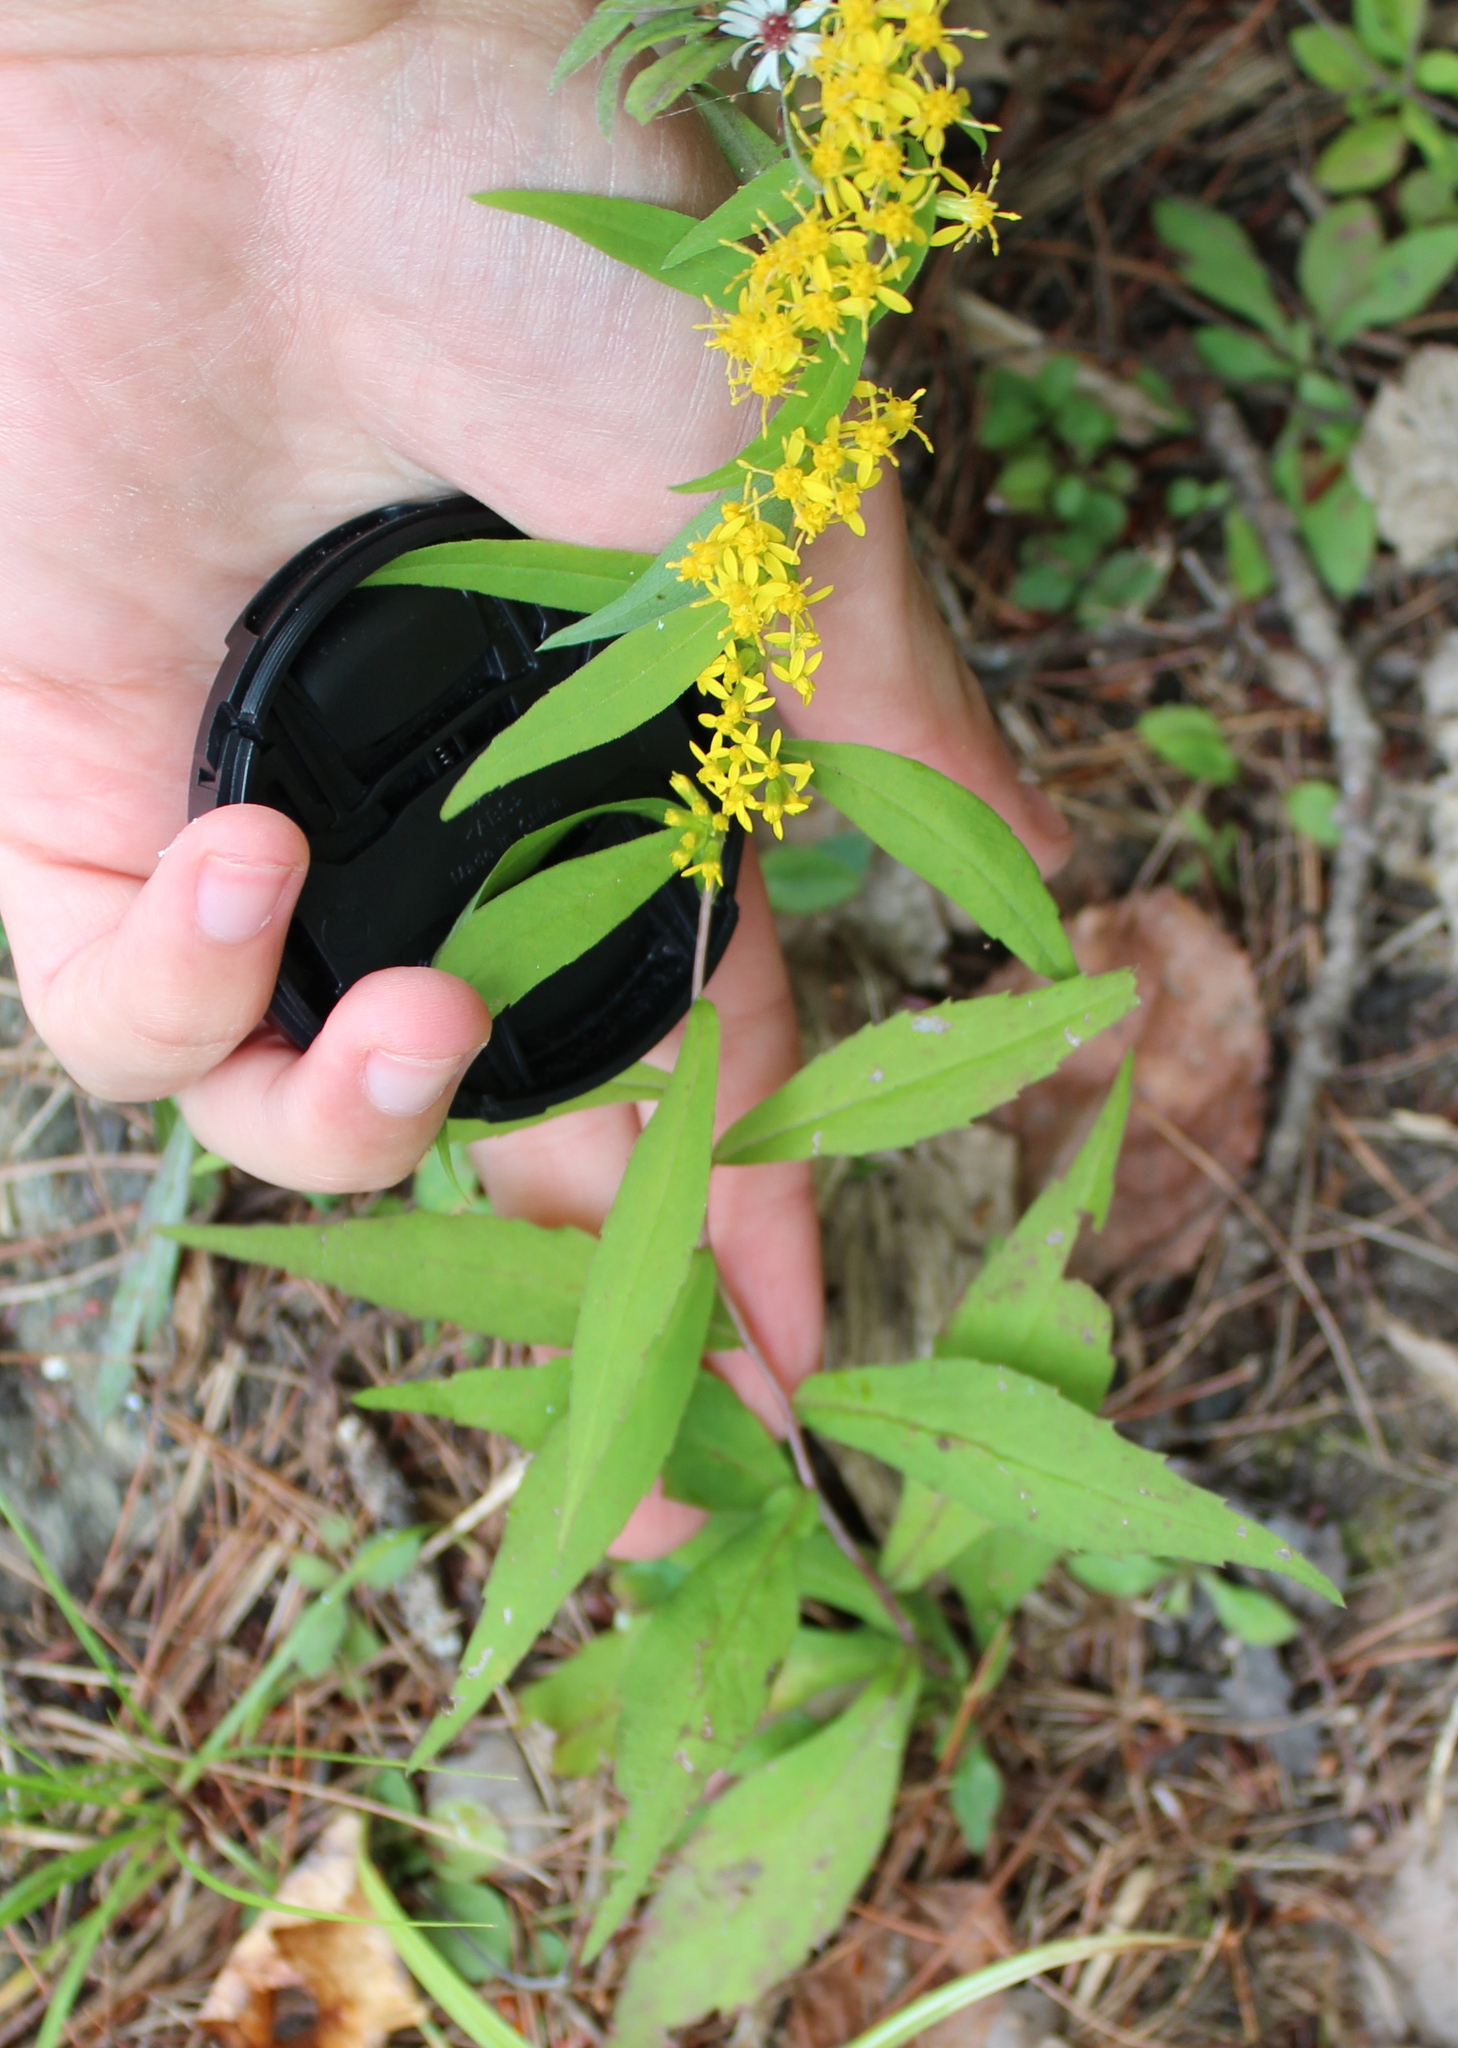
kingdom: Plantae
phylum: Tracheophyta
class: Magnoliopsida
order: Asterales
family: Asteraceae
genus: Solidago
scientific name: Solidago caesia
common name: Woodland goldenrod
